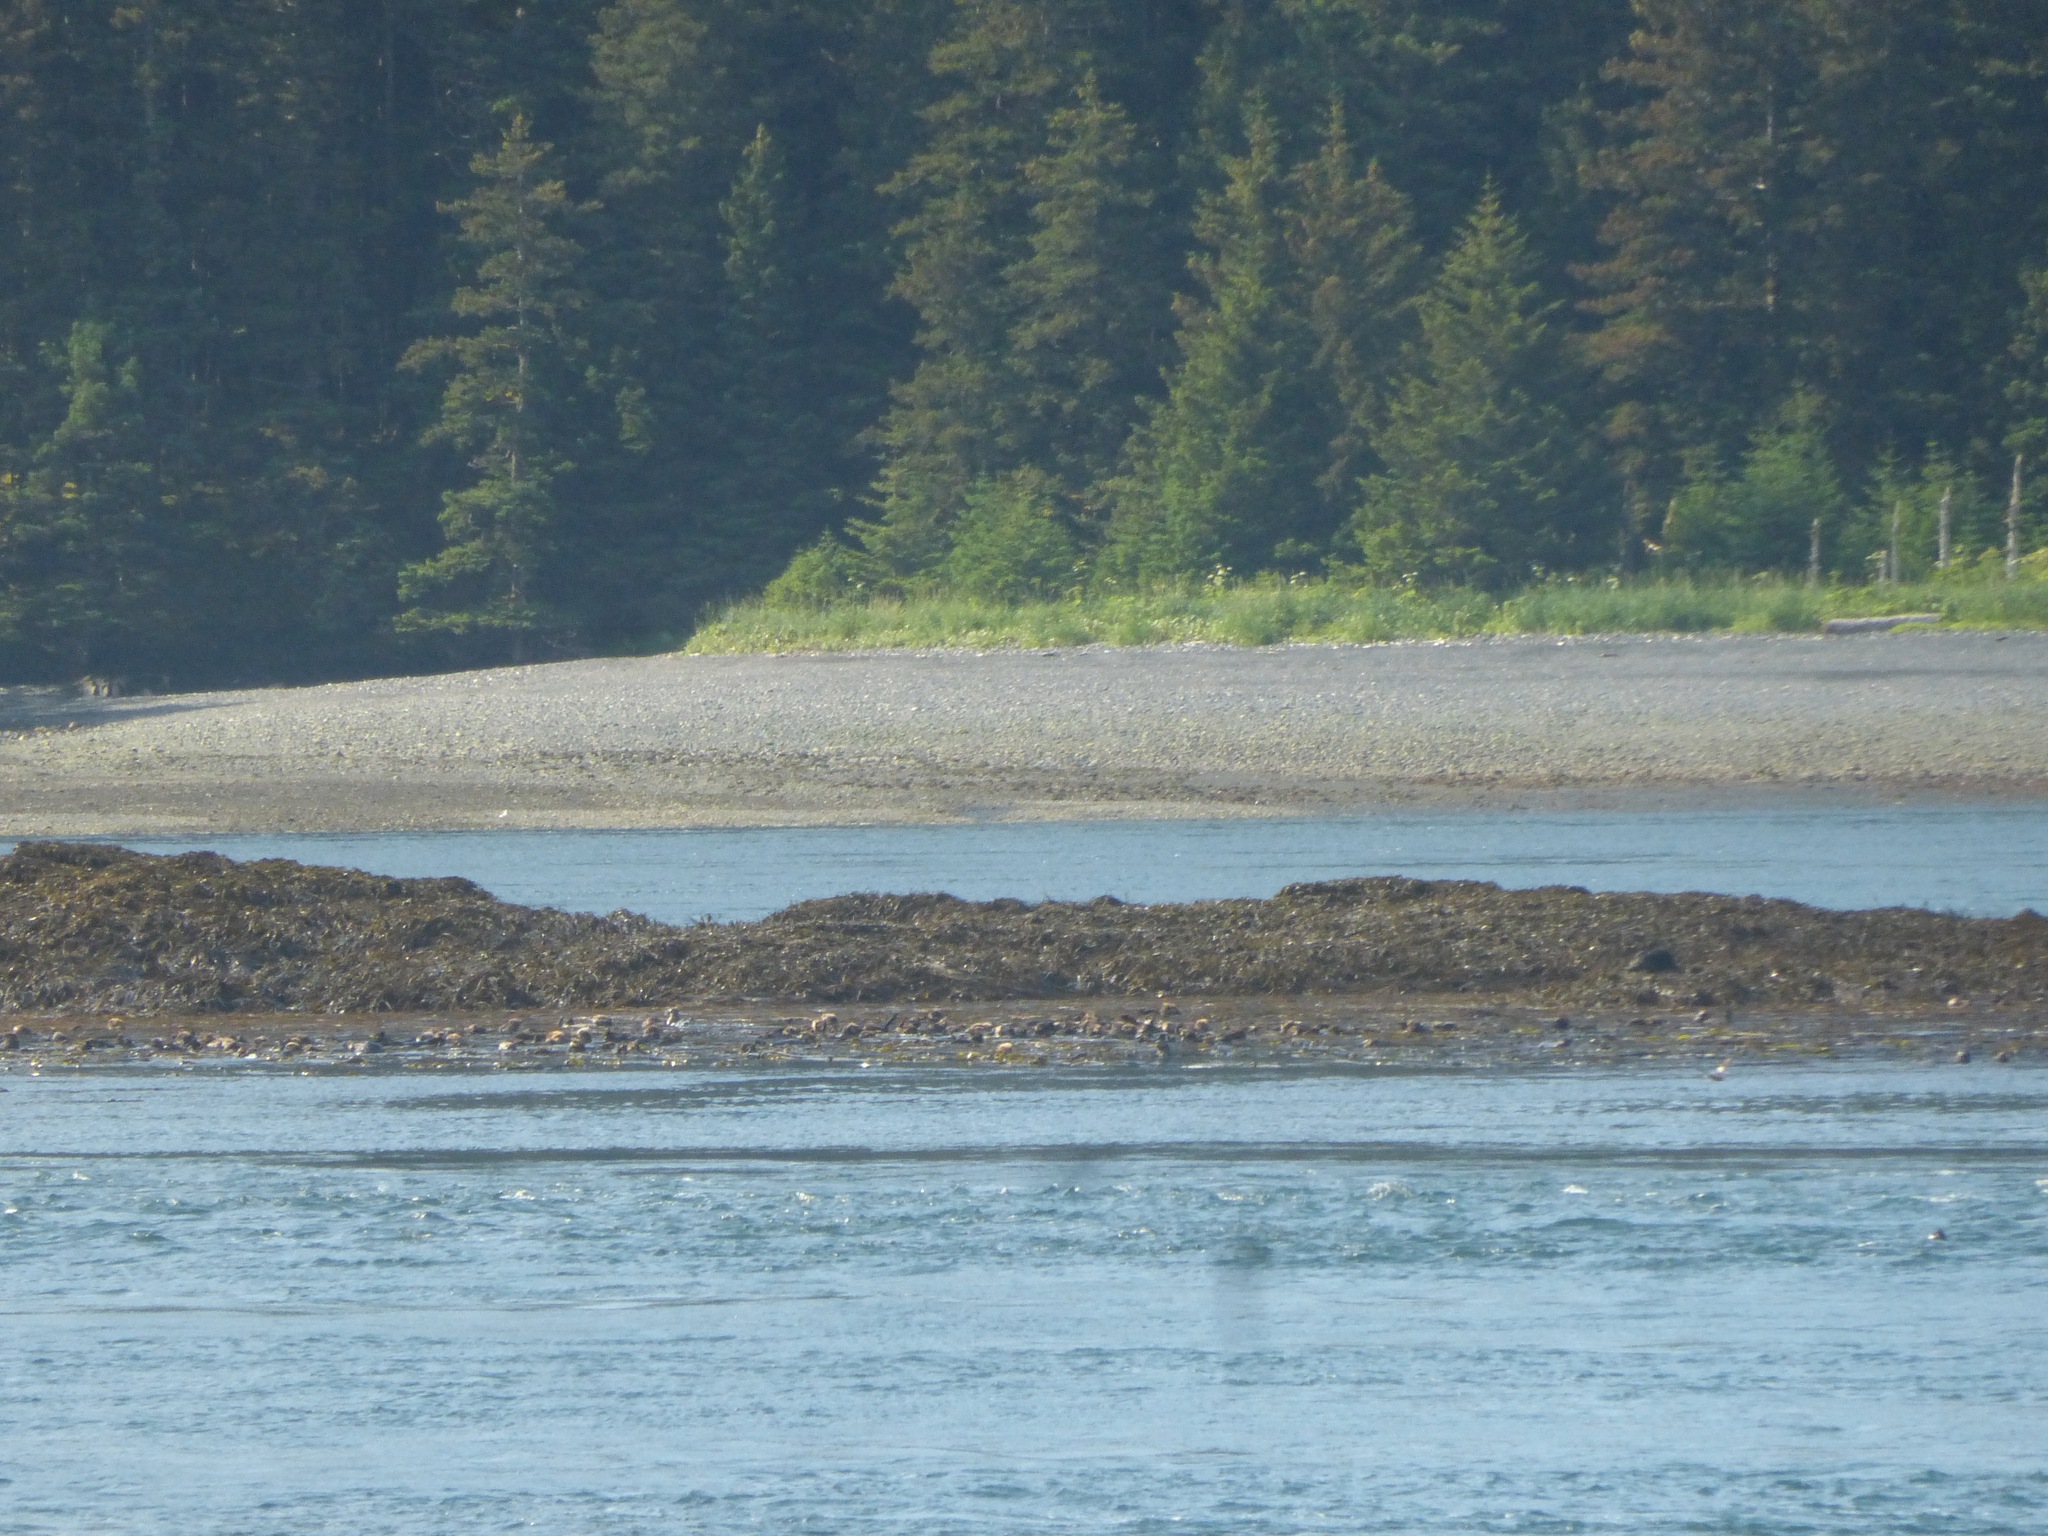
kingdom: Animalia
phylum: Chordata
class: Mammalia
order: Carnivora
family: Mustelidae
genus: Enhydra
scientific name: Enhydra lutris
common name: Sea otter
